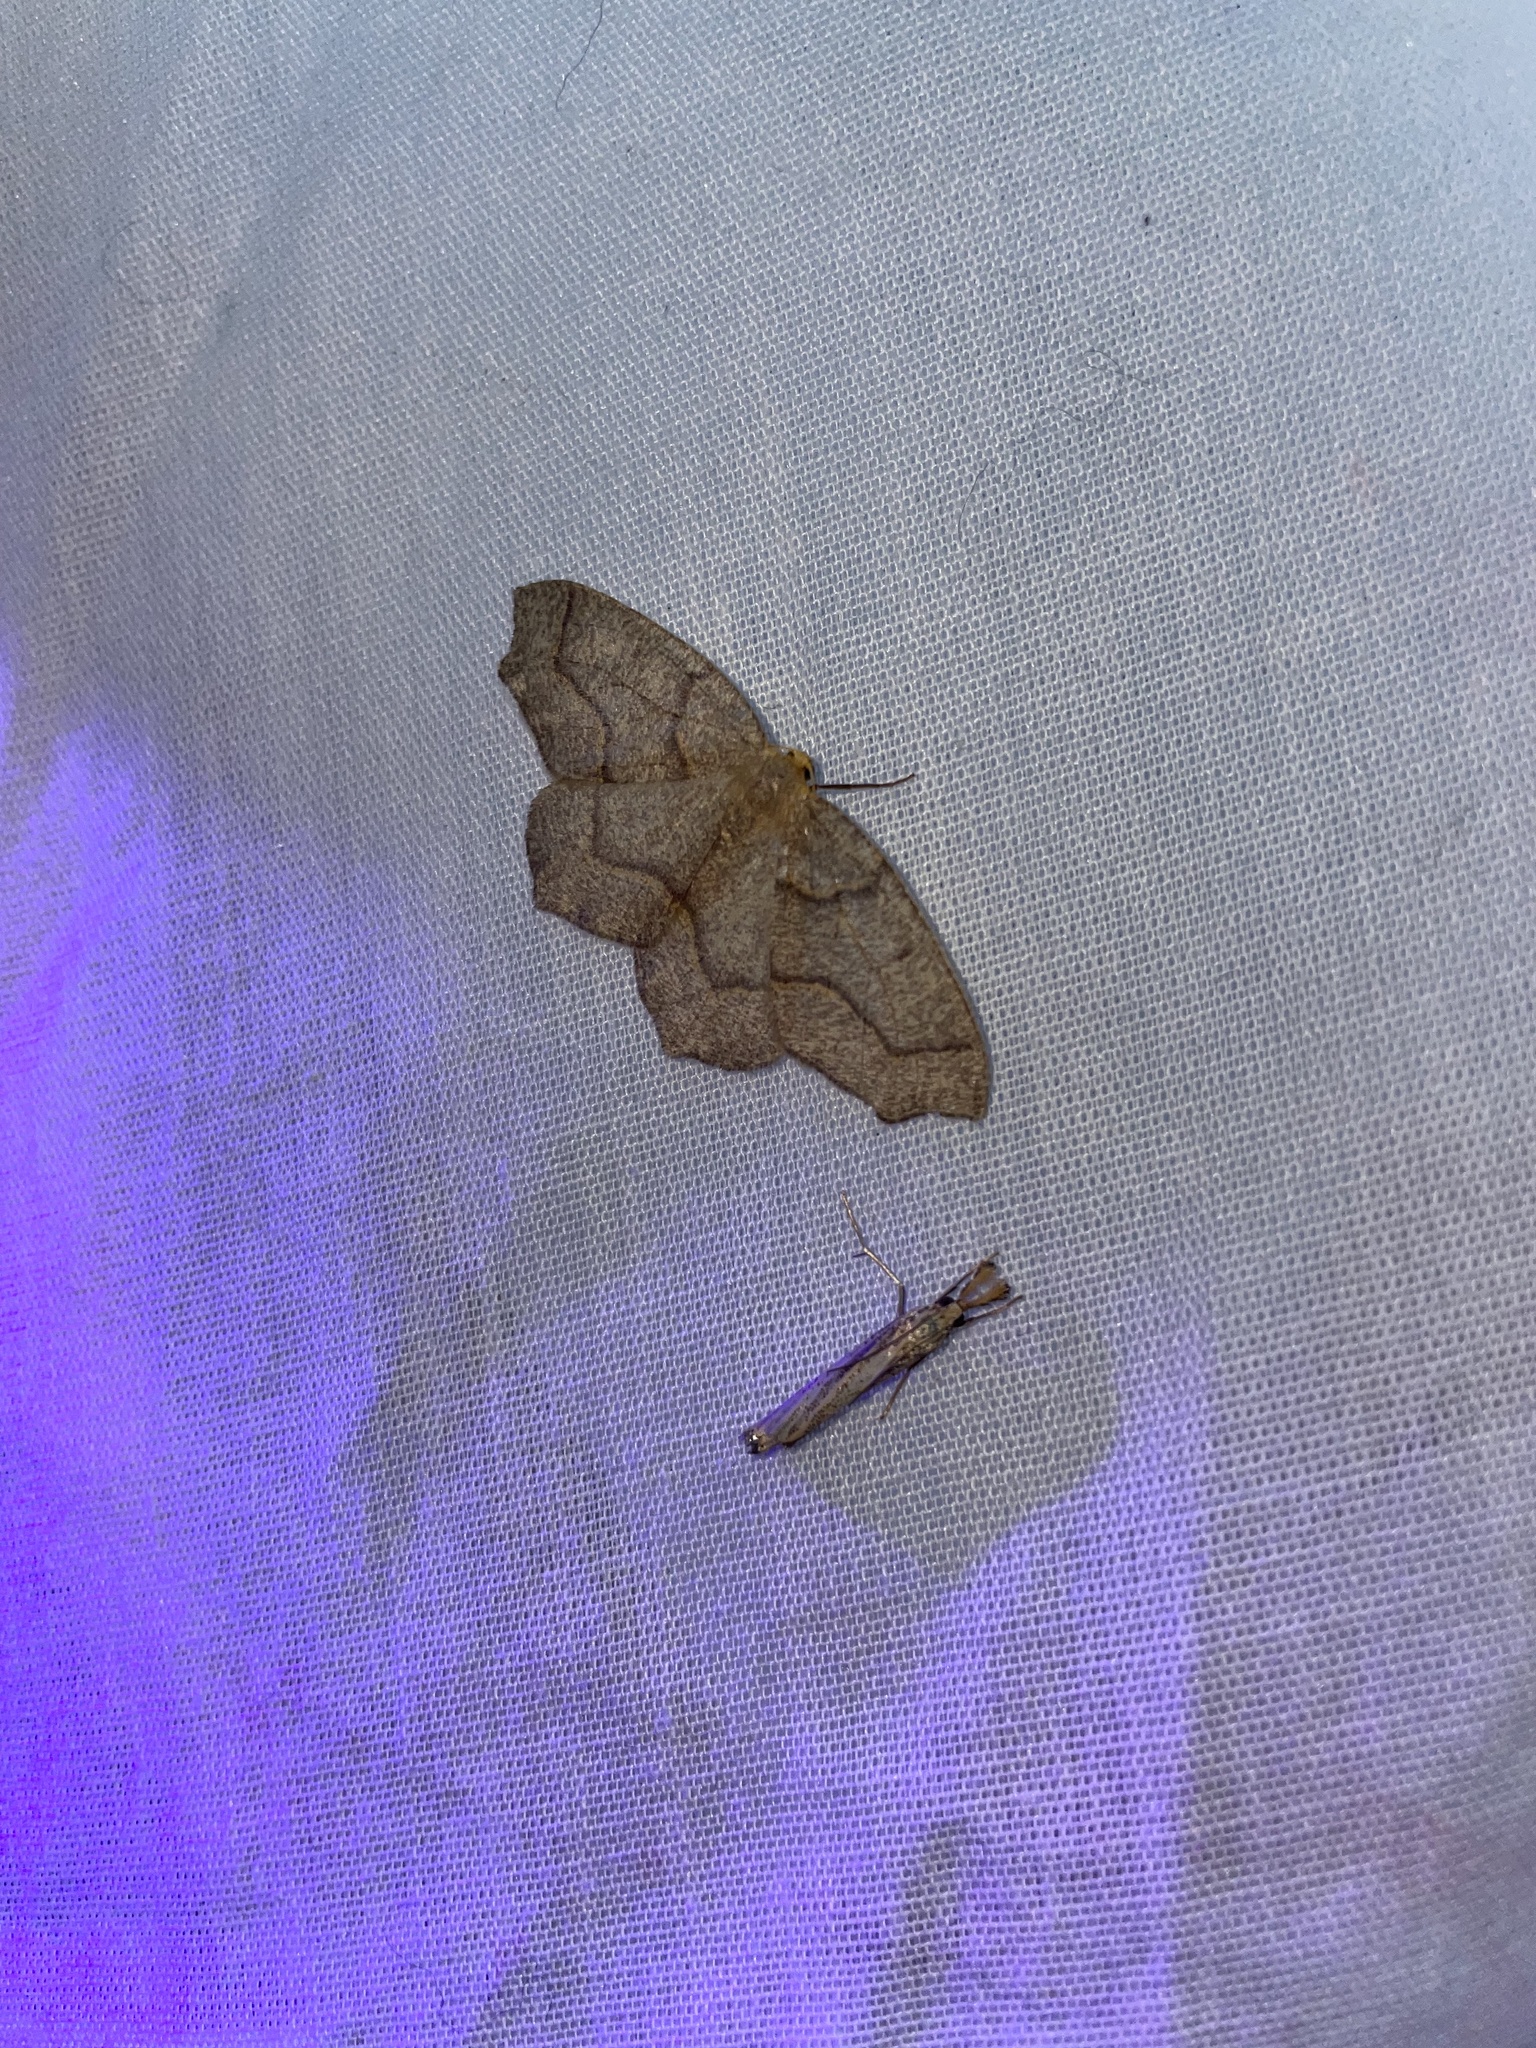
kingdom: Animalia
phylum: Arthropoda
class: Insecta
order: Lepidoptera
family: Geometridae
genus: Lambdina
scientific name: Lambdina fiscellaria
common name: Hemlock looper
